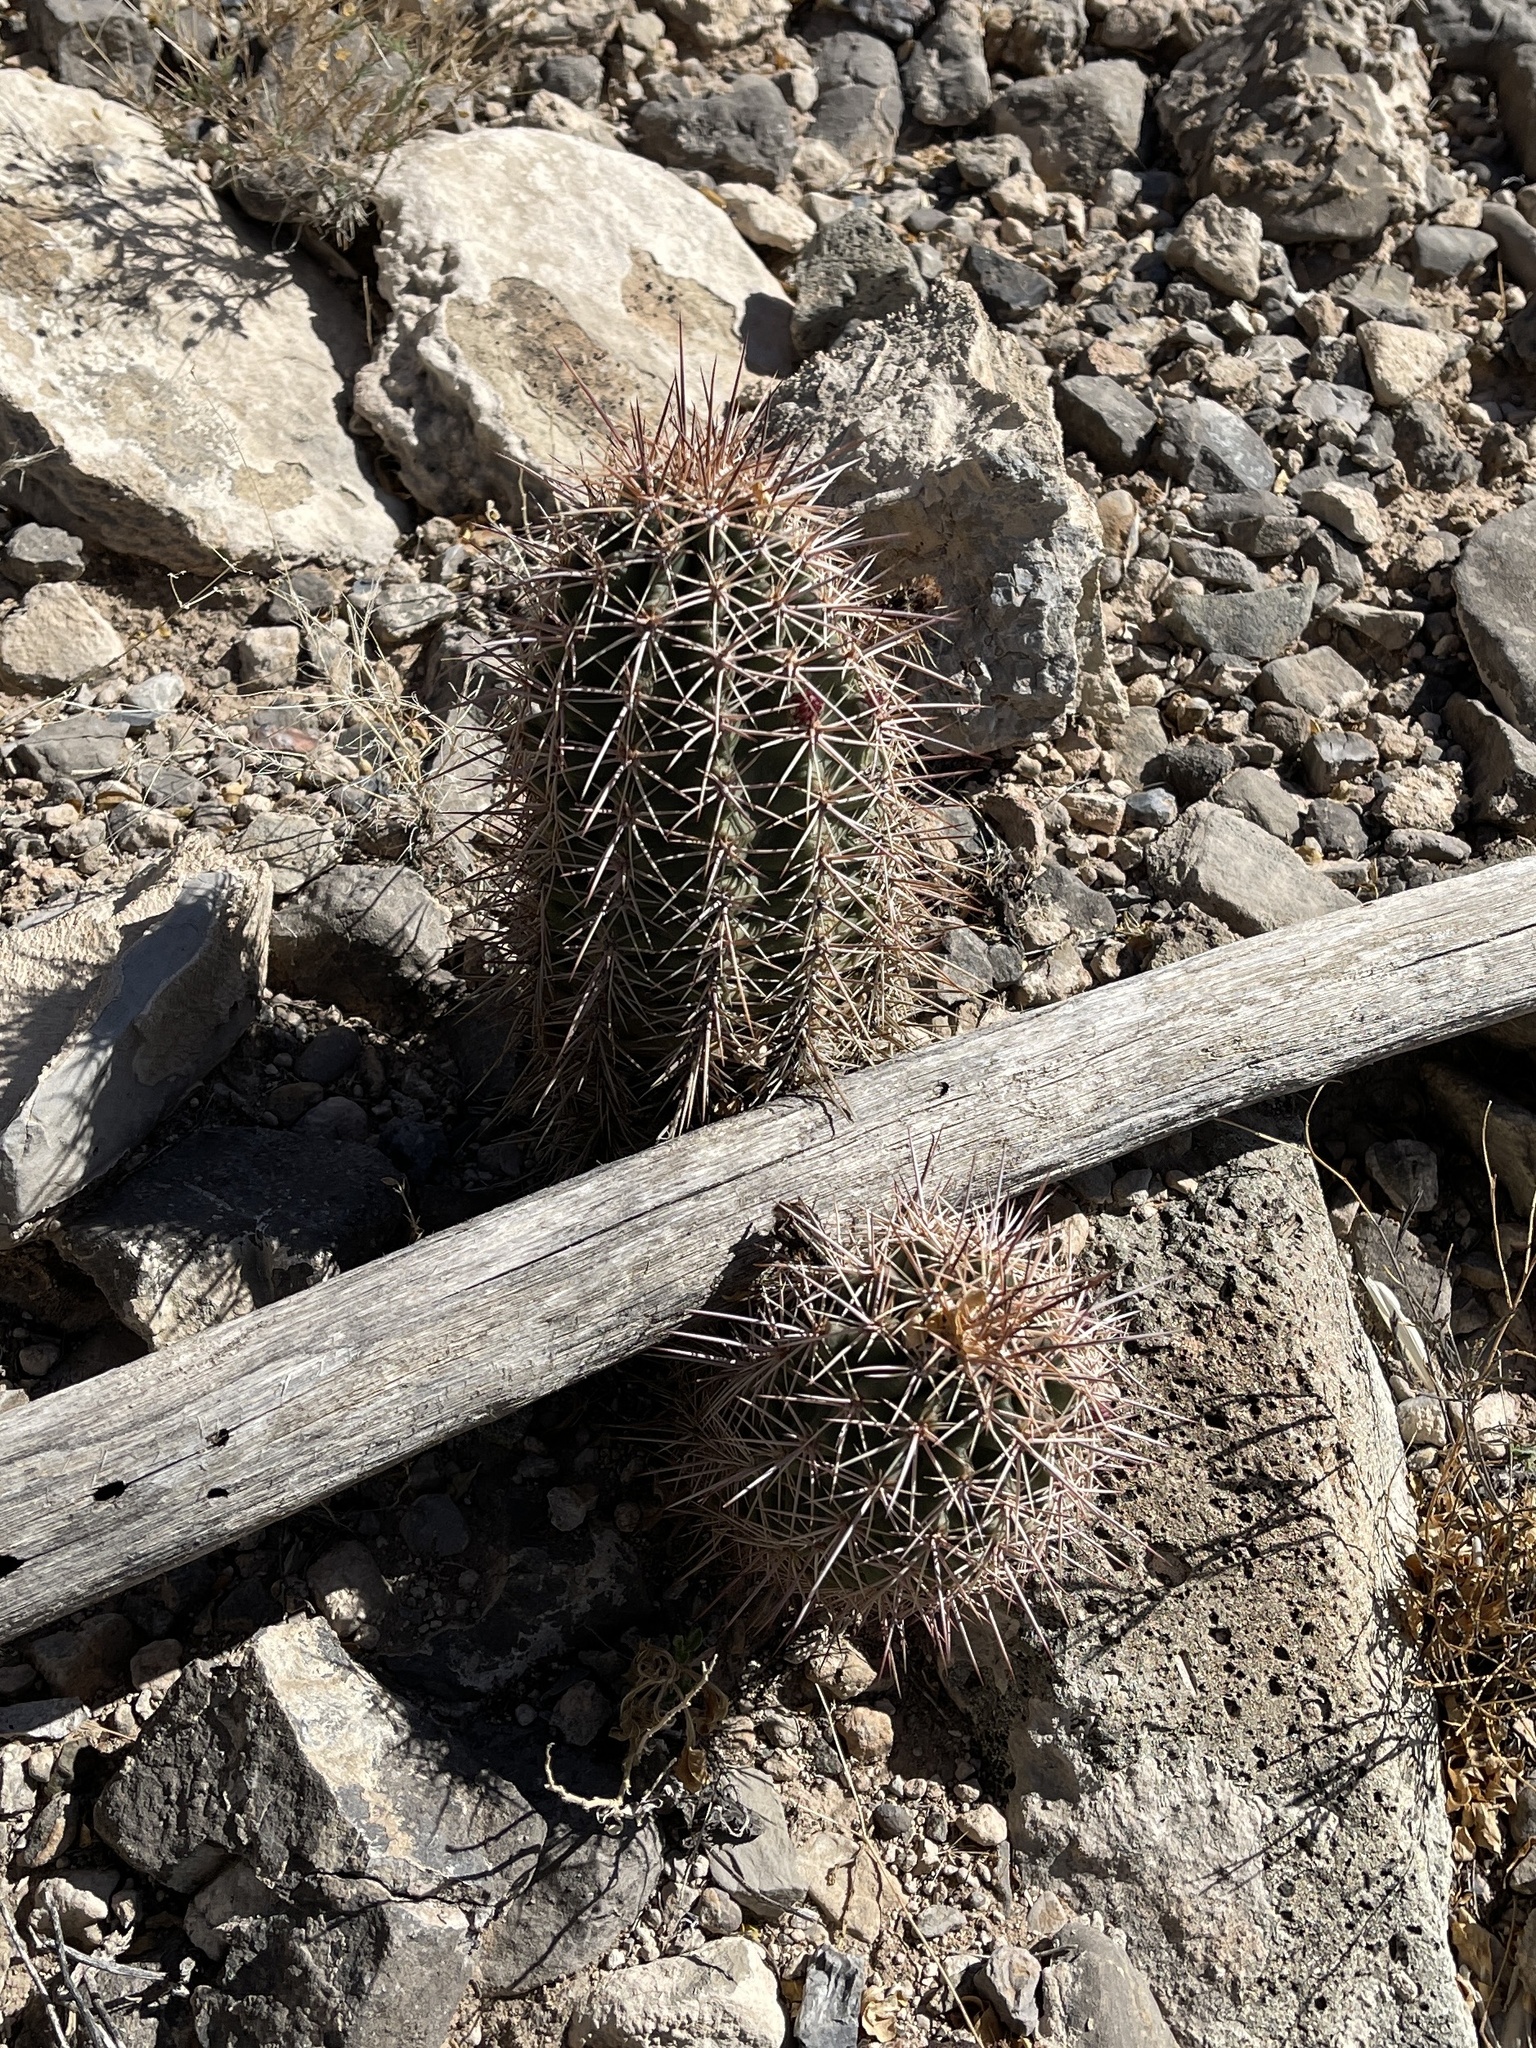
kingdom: Plantae
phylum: Tracheophyta
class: Magnoliopsida
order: Caryophyllales
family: Cactaceae
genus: Echinocereus
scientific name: Echinocereus coccineus
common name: Scarlet hedgehog cactus
